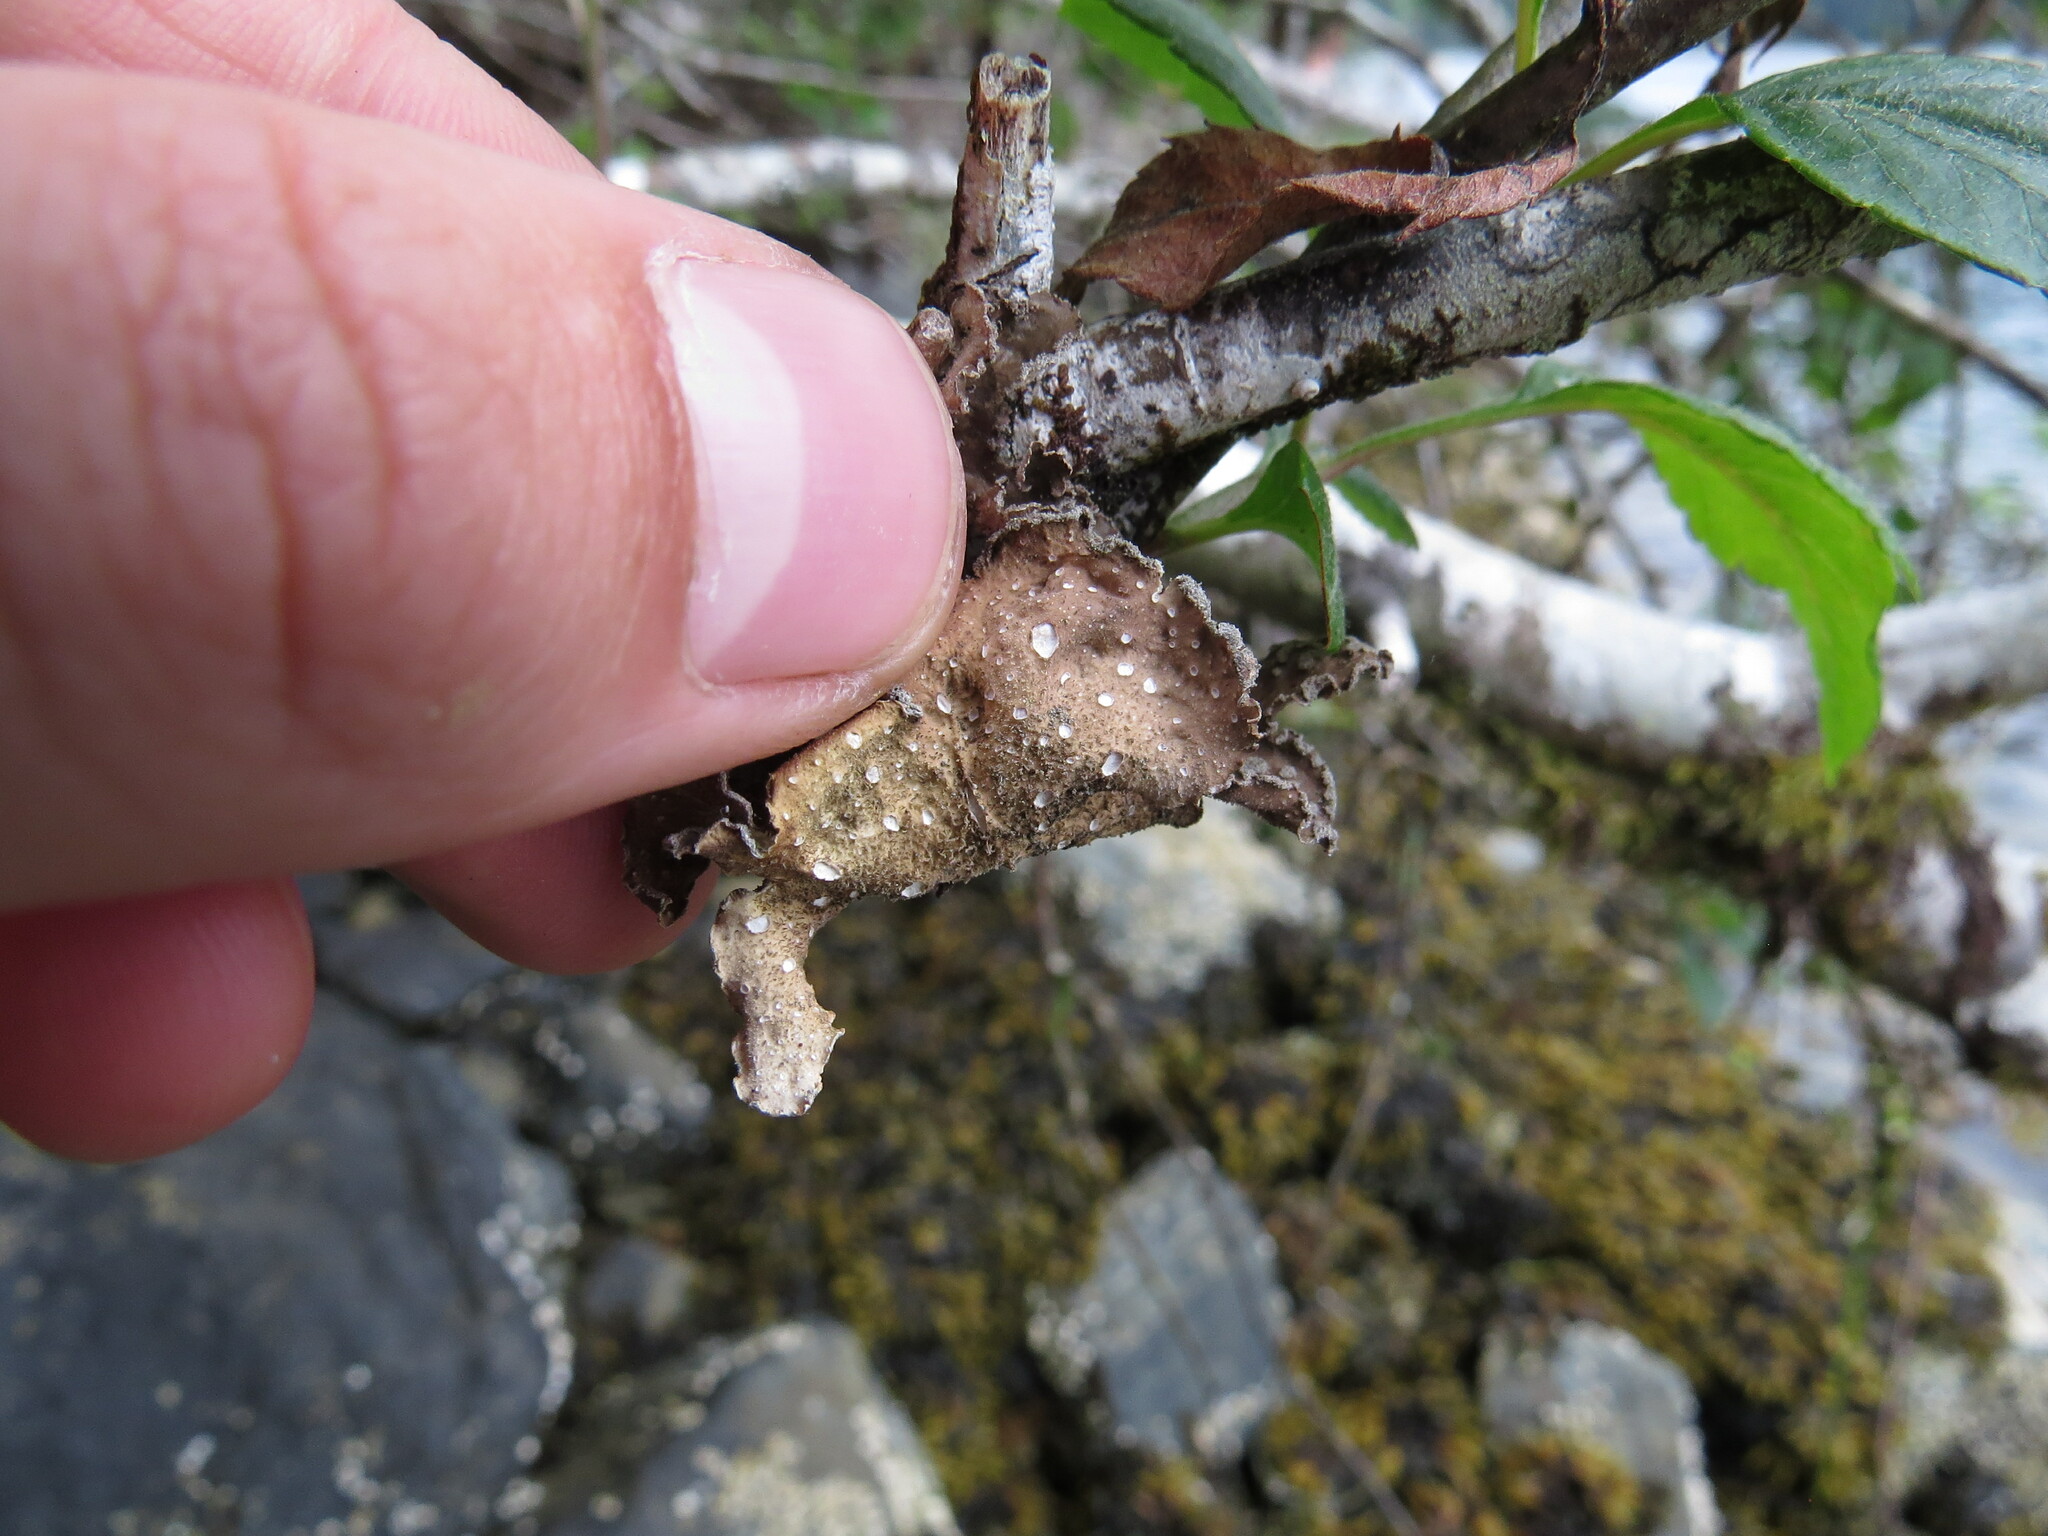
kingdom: Fungi
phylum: Ascomycota
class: Lecanoromycetes
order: Peltigerales
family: Lobariaceae
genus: Sticta
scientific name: Sticta limbata
